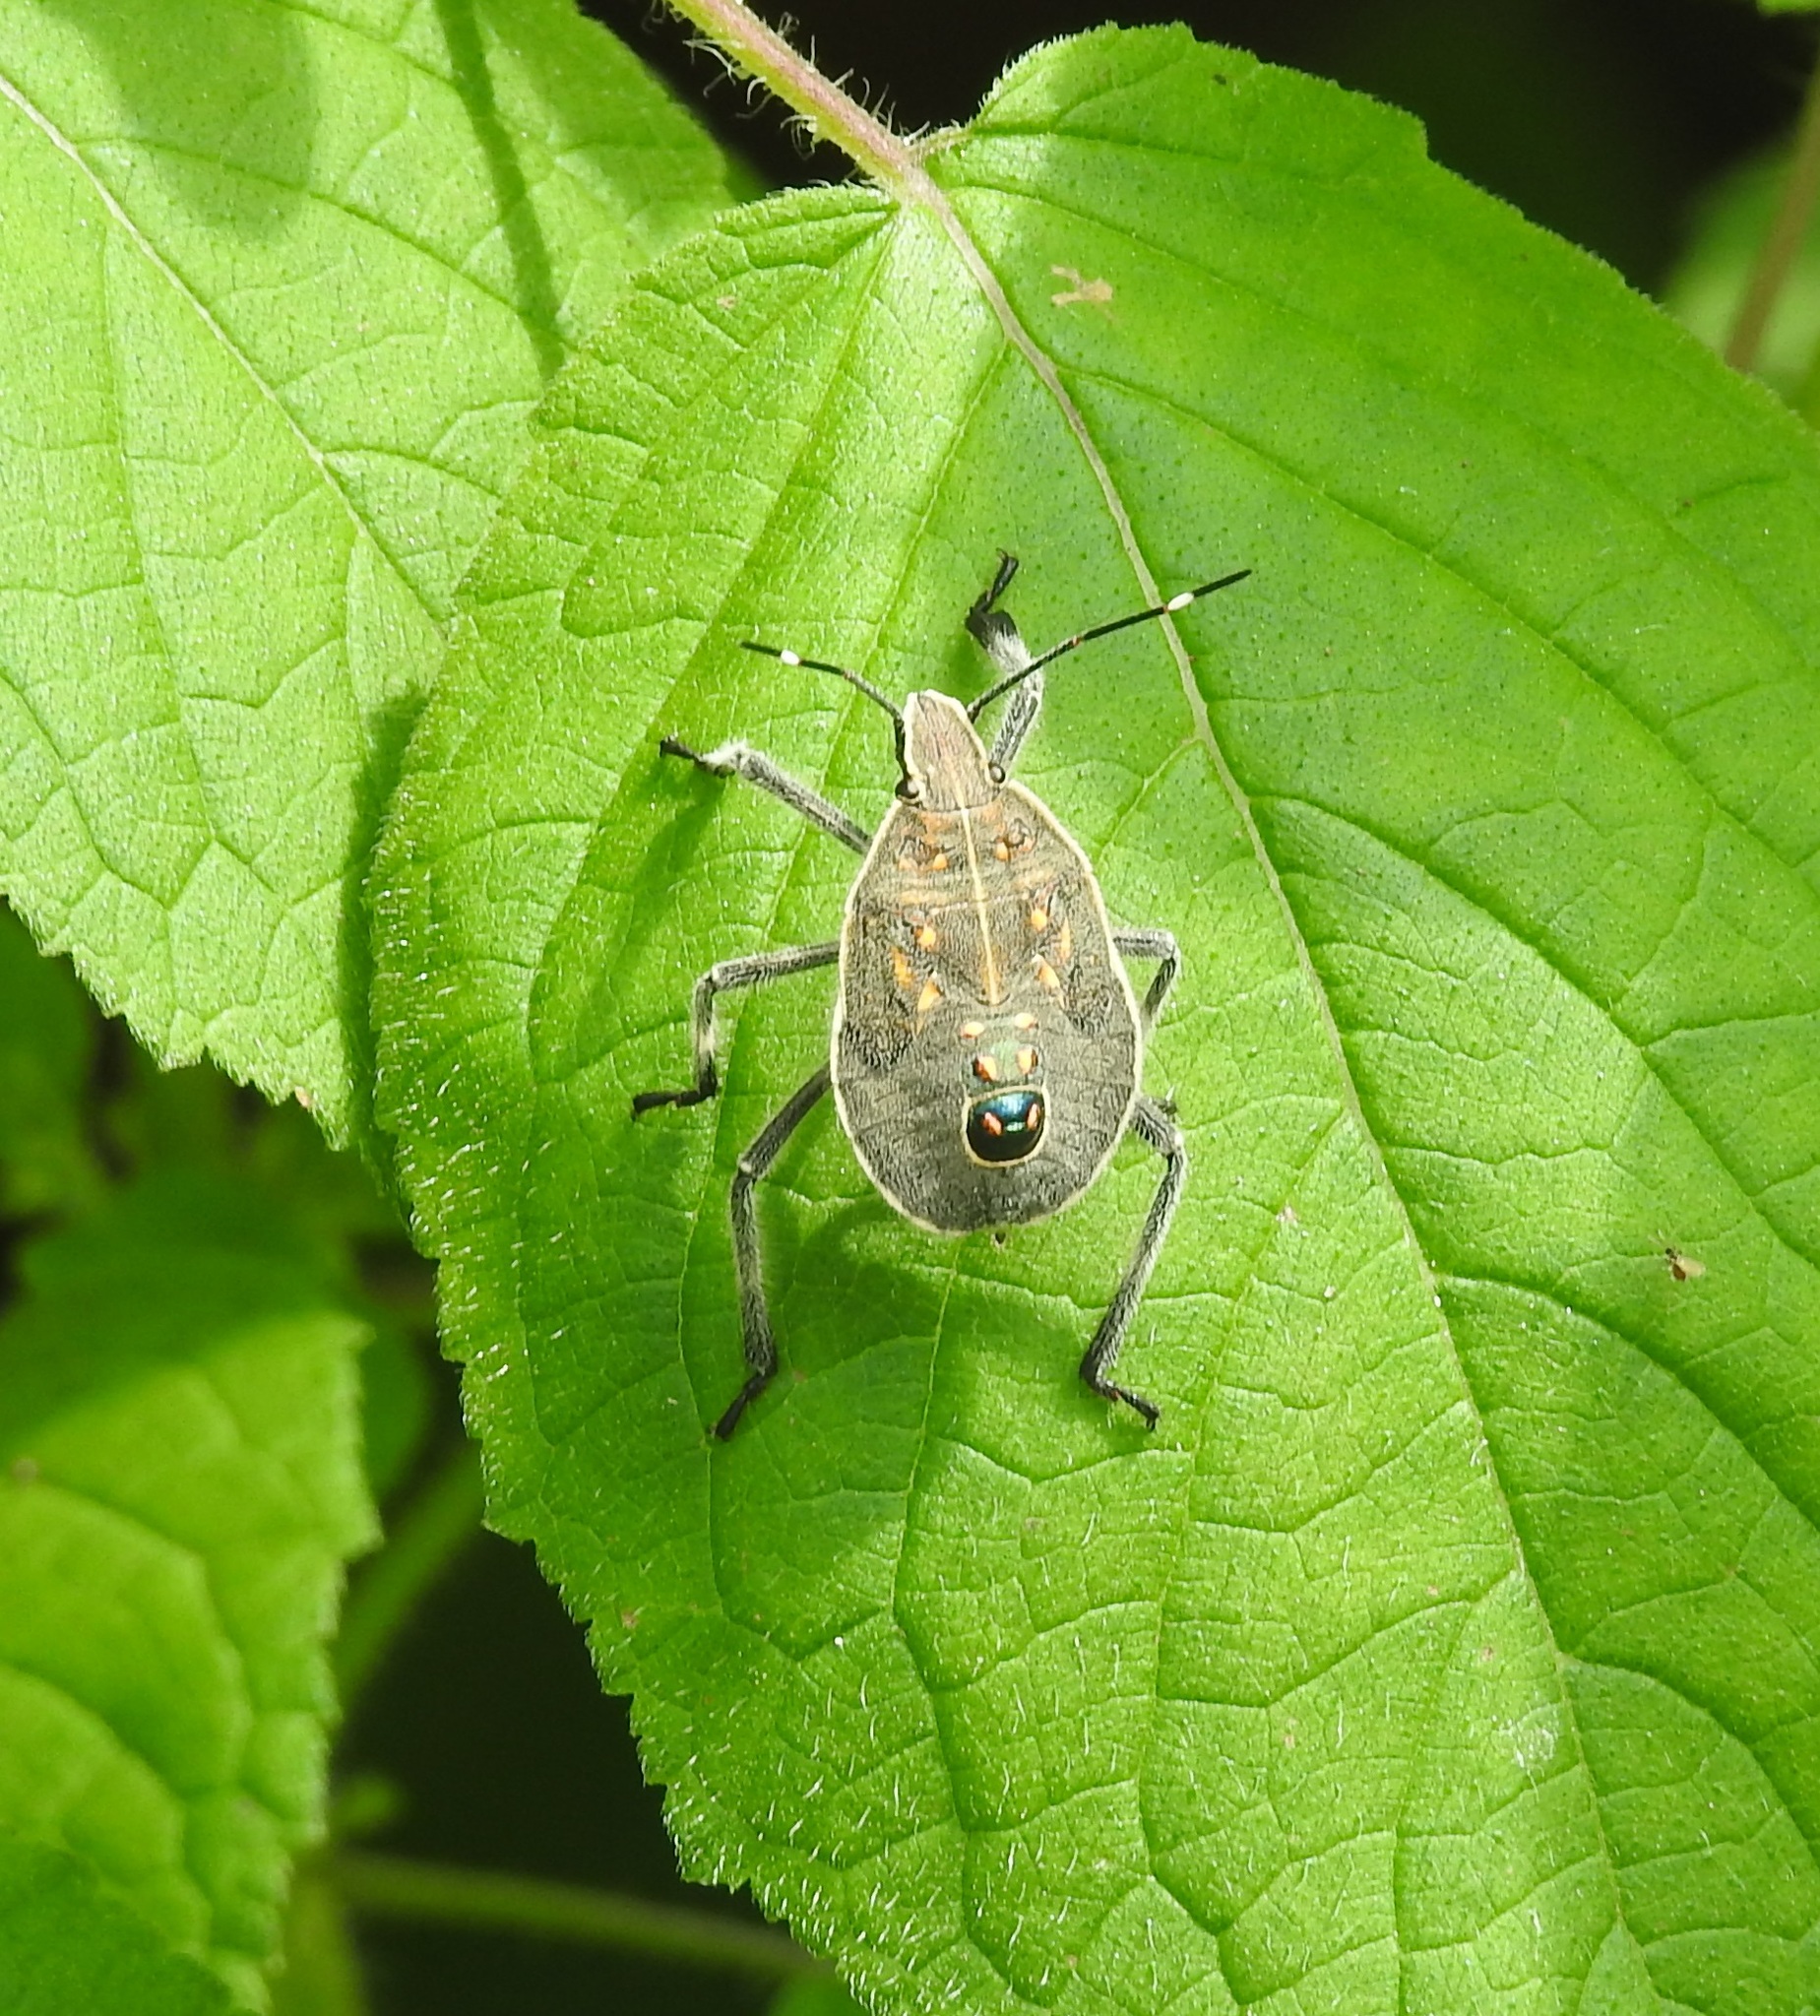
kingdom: Animalia
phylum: Arthropoda
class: Insecta
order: Hemiptera
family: Pentatomidae
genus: Erthesina
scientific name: Erthesina acuminata
